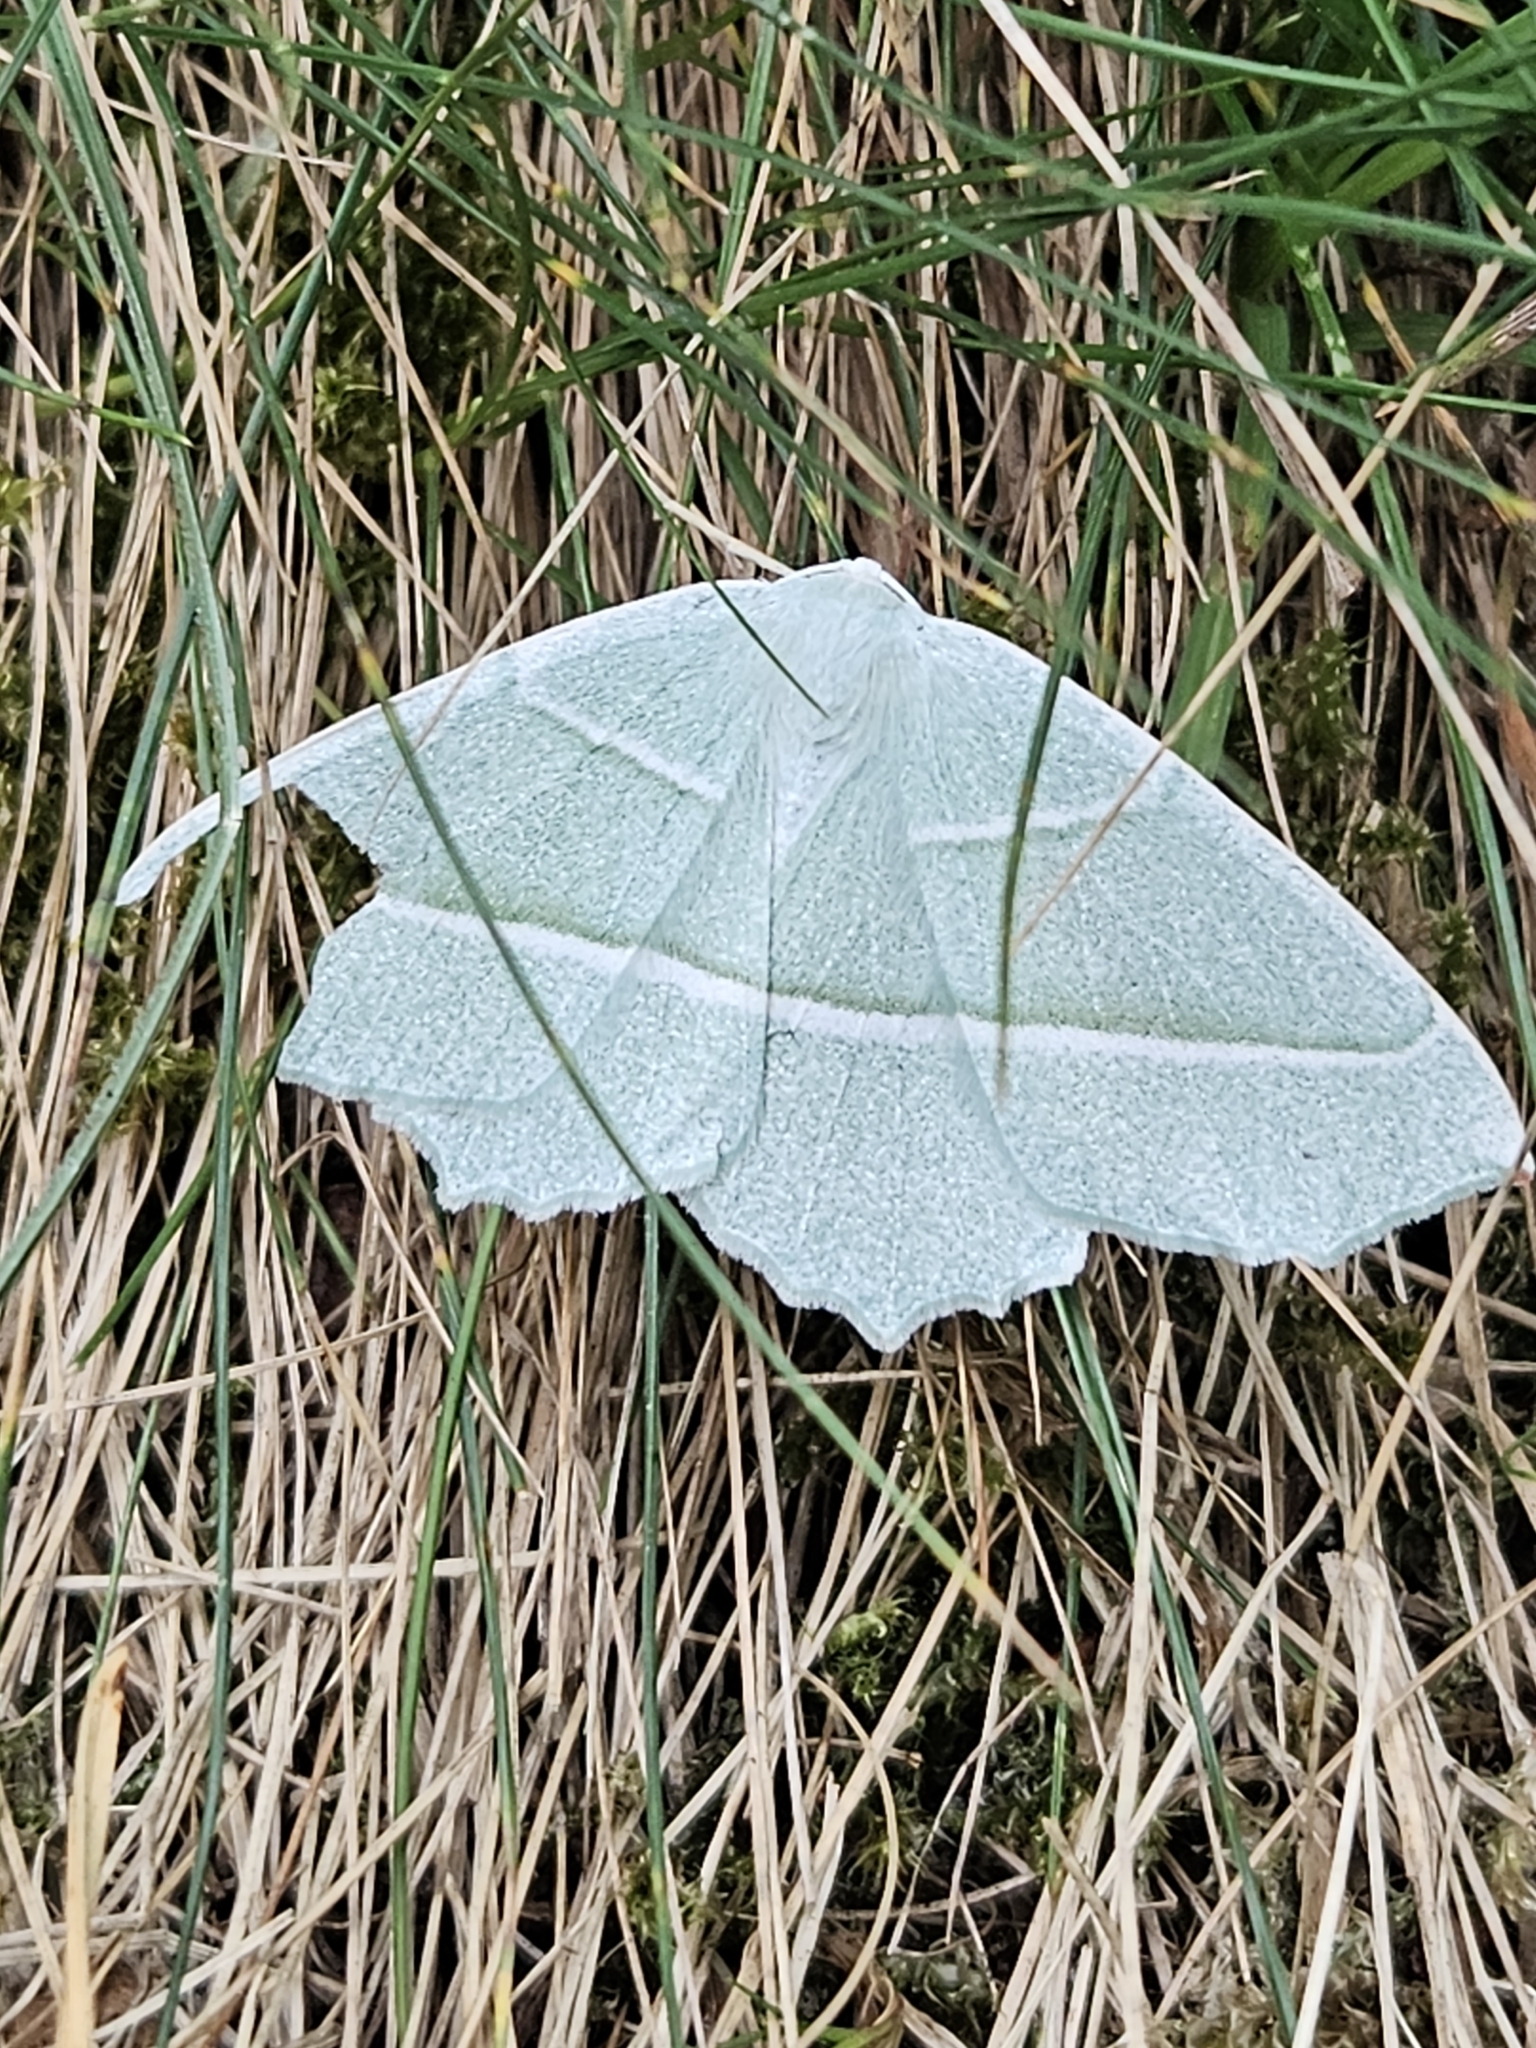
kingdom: Animalia
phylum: Arthropoda
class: Insecta
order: Lepidoptera
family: Geometridae
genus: Campaea
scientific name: Campaea margaritaria
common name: Light emerald
